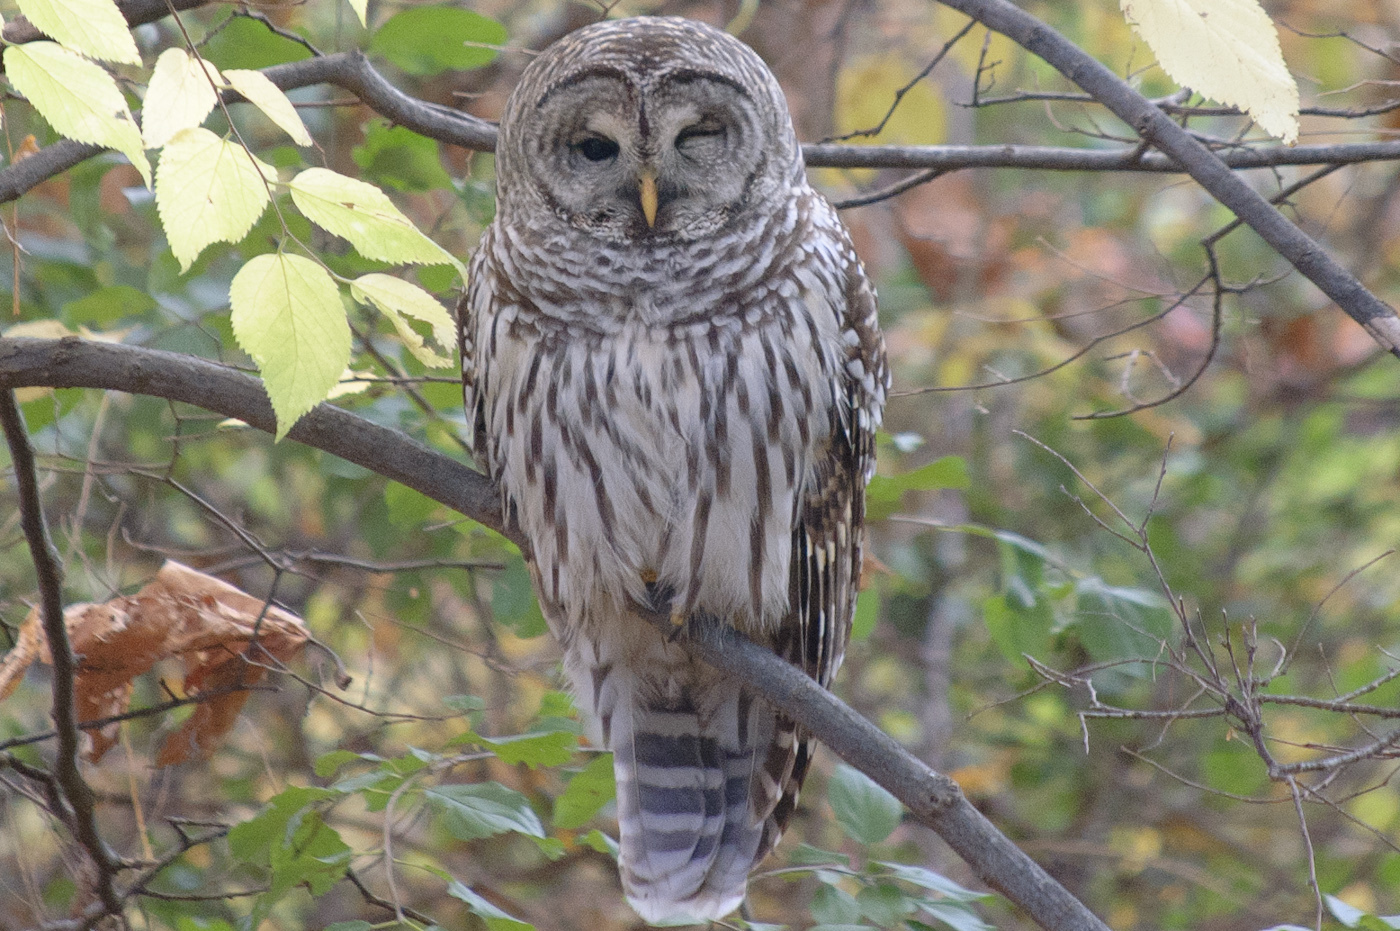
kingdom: Animalia
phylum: Chordata
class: Aves
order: Strigiformes
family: Strigidae
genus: Strix
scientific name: Strix varia
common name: Barred owl
